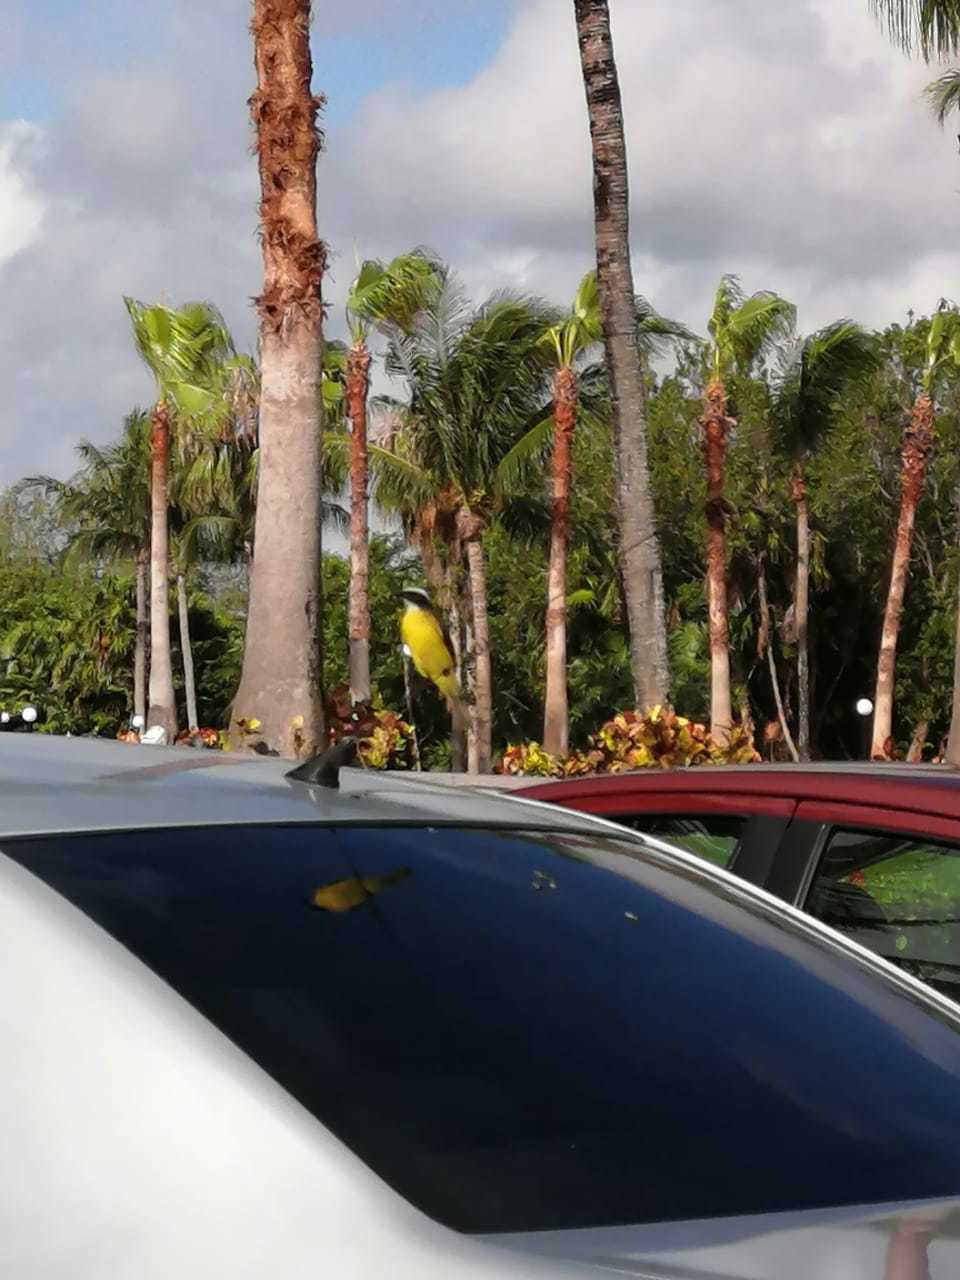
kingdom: Animalia
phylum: Chordata
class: Aves
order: Passeriformes
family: Tyrannidae
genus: Myiozetetes
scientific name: Myiozetetes similis
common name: Social flycatcher
